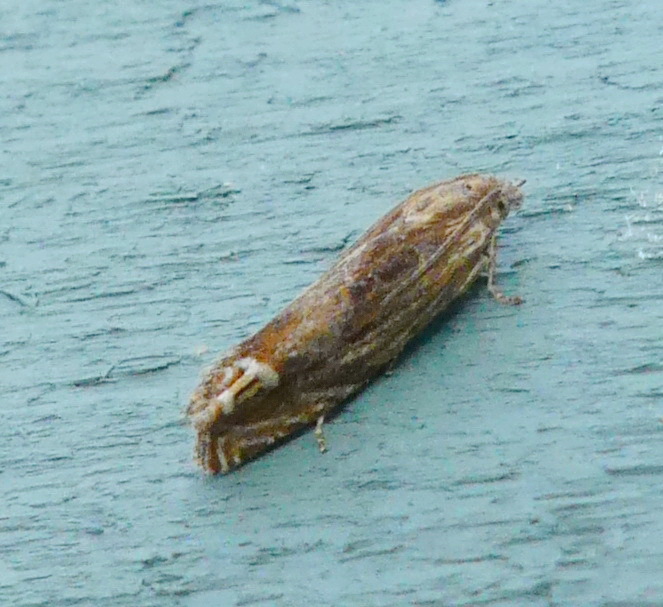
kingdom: Animalia
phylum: Arthropoda
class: Insecta
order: Lepidoptera
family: Tortricidae
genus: Eucosma
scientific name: Eucosma formosana
